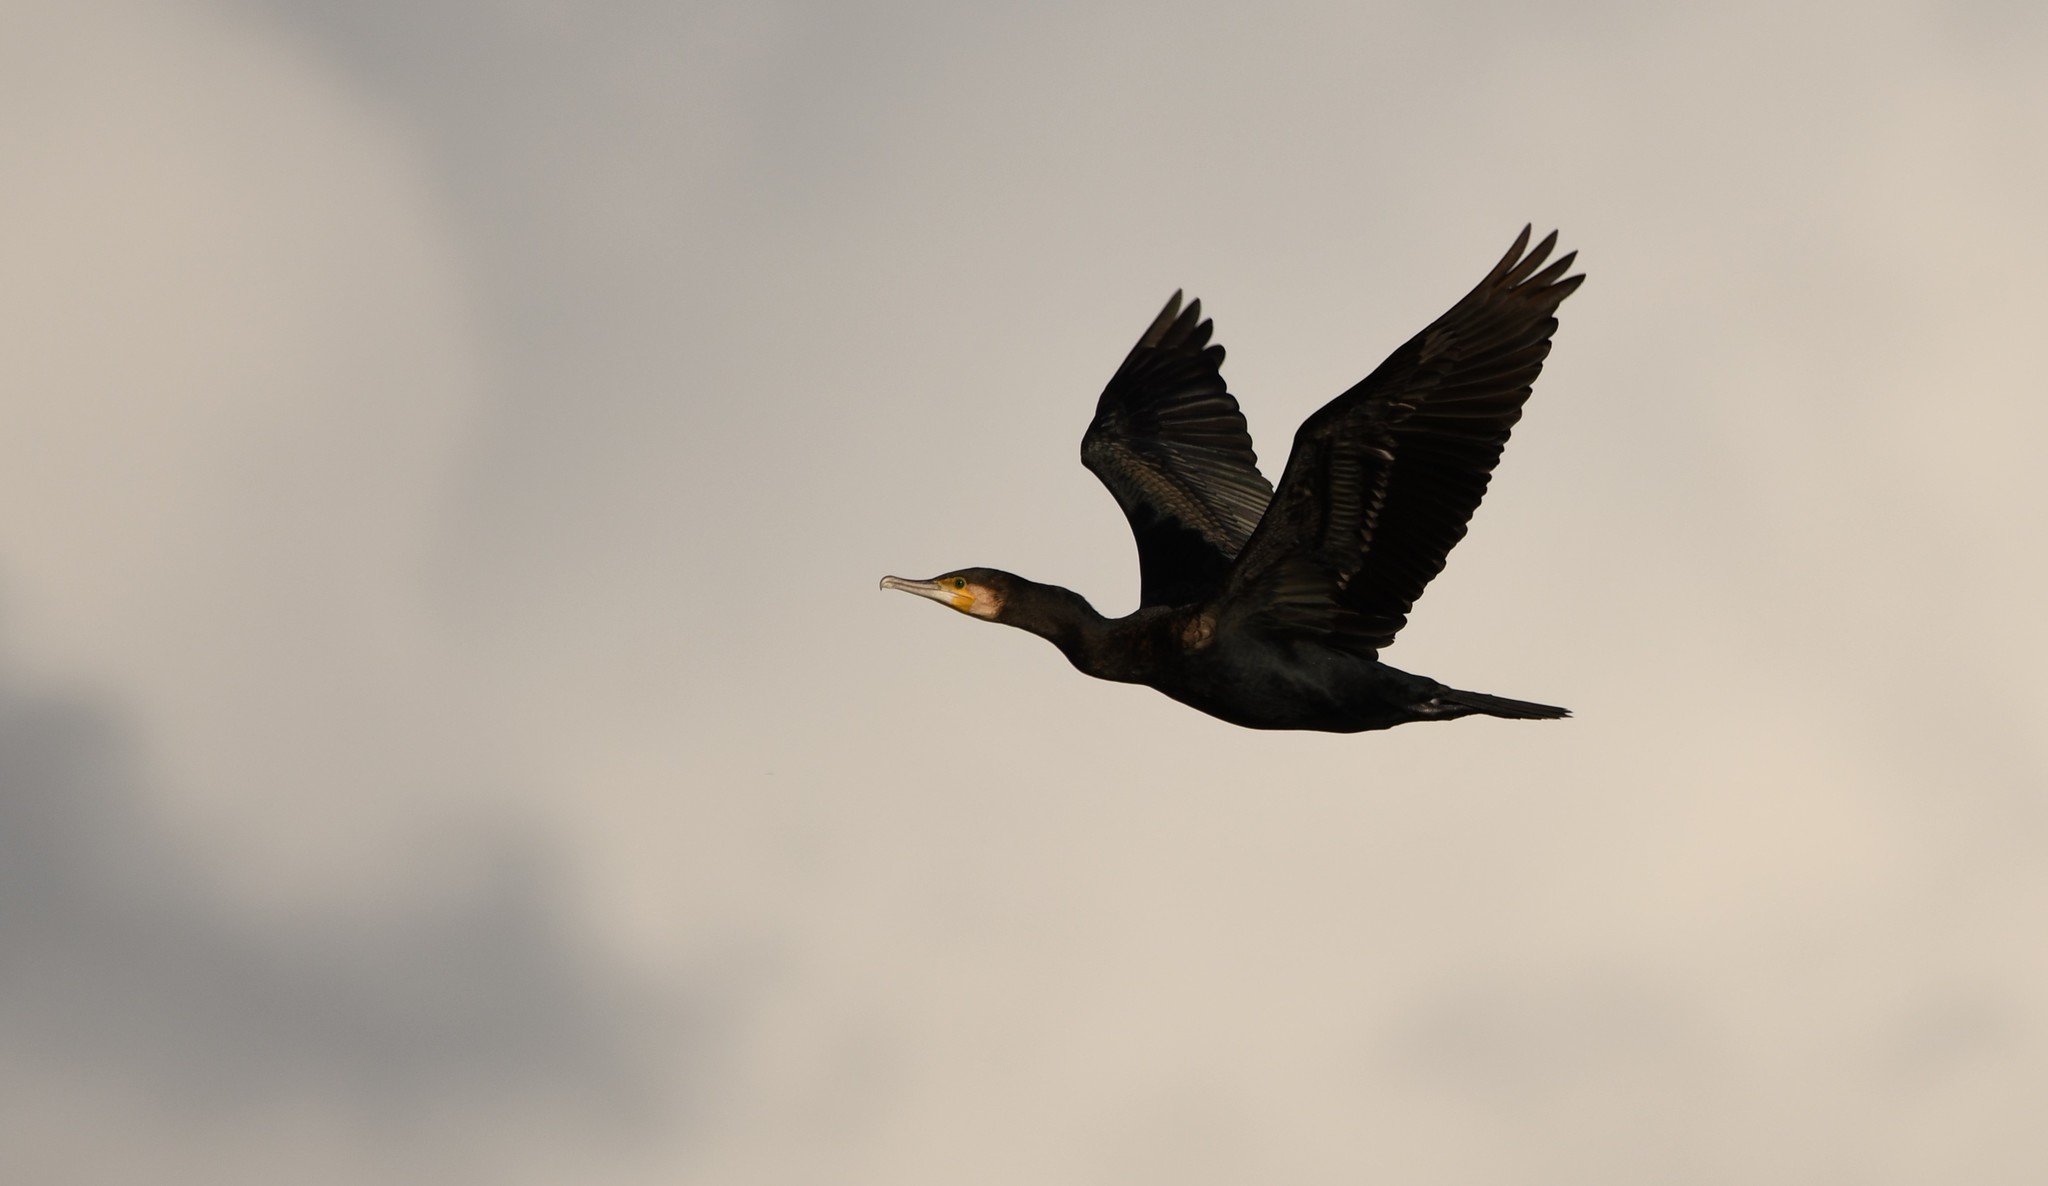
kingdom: Animalia
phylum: Chordata
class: Aves
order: Suliformes
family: Phalacrocoracidae
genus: Phalacrocorax
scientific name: Phalacrocorax carbo
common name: Great cormorant
